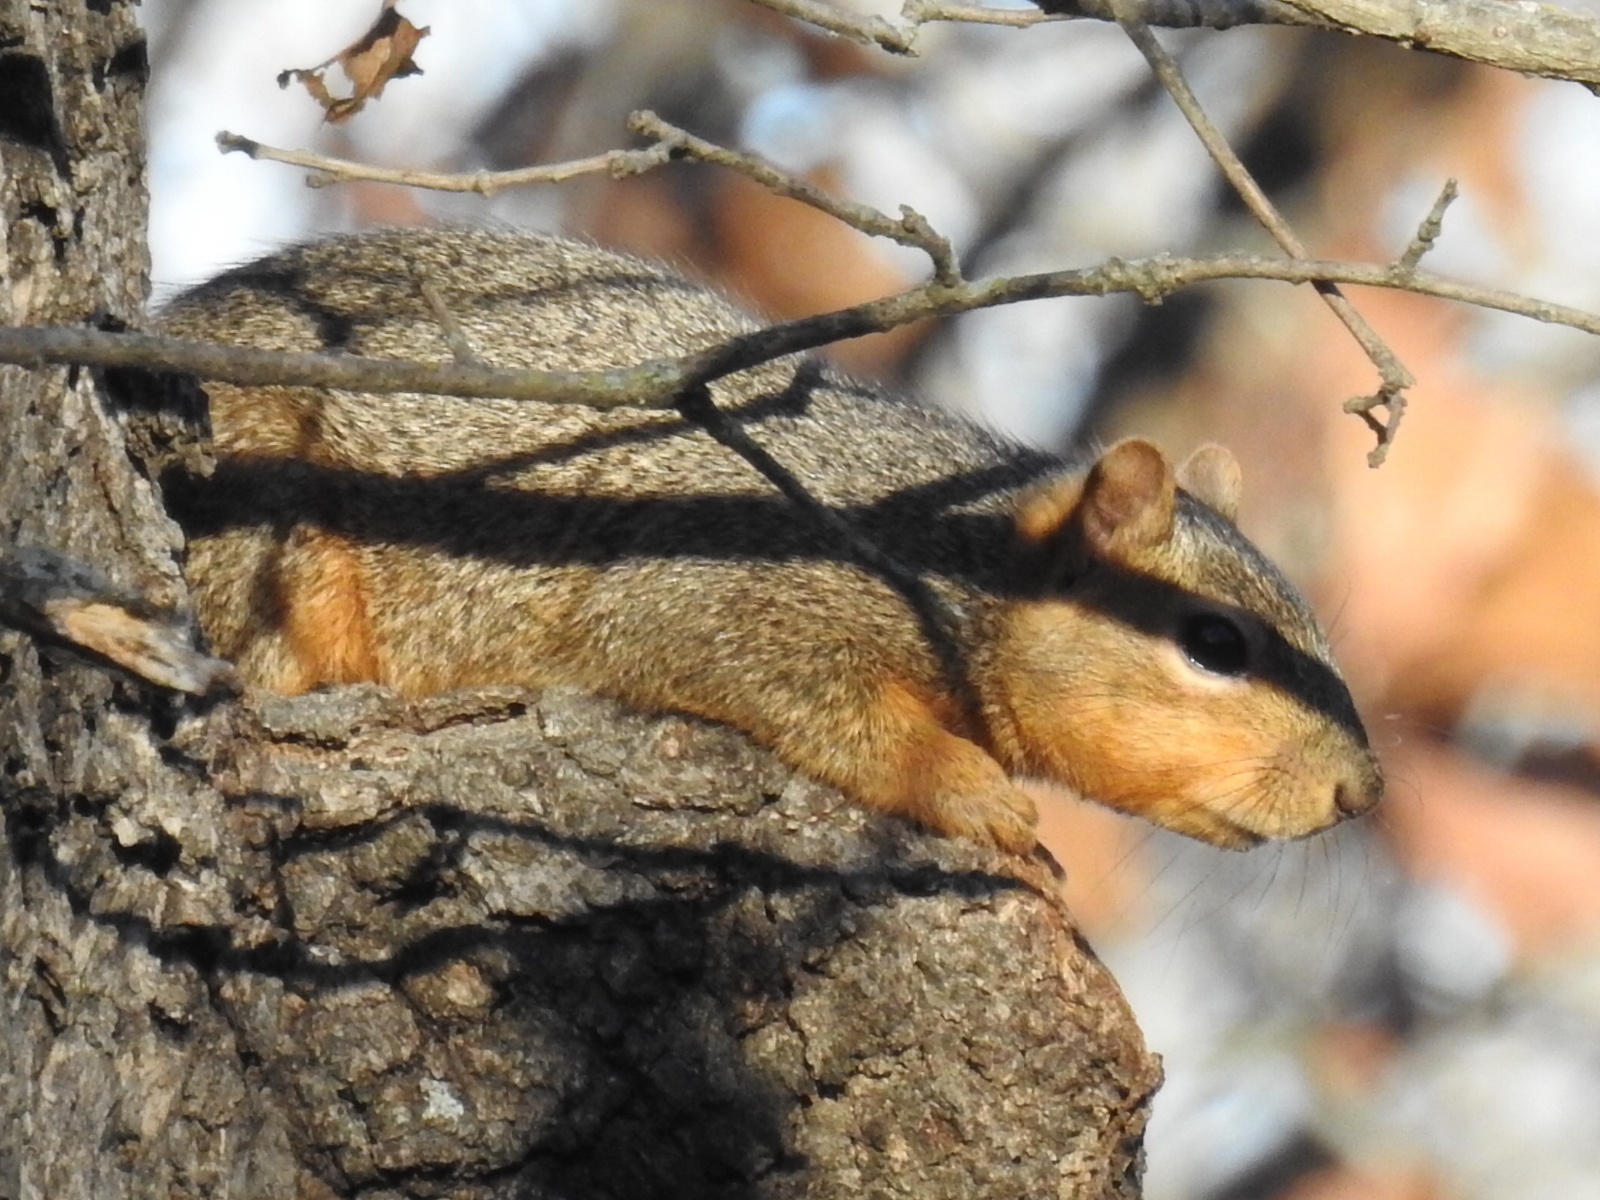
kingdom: Animalia
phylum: Chordata
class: Mammalia
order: Rodentia
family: Sciuridae
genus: Sciurus
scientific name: Sciurus niger
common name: Fox squirrel
